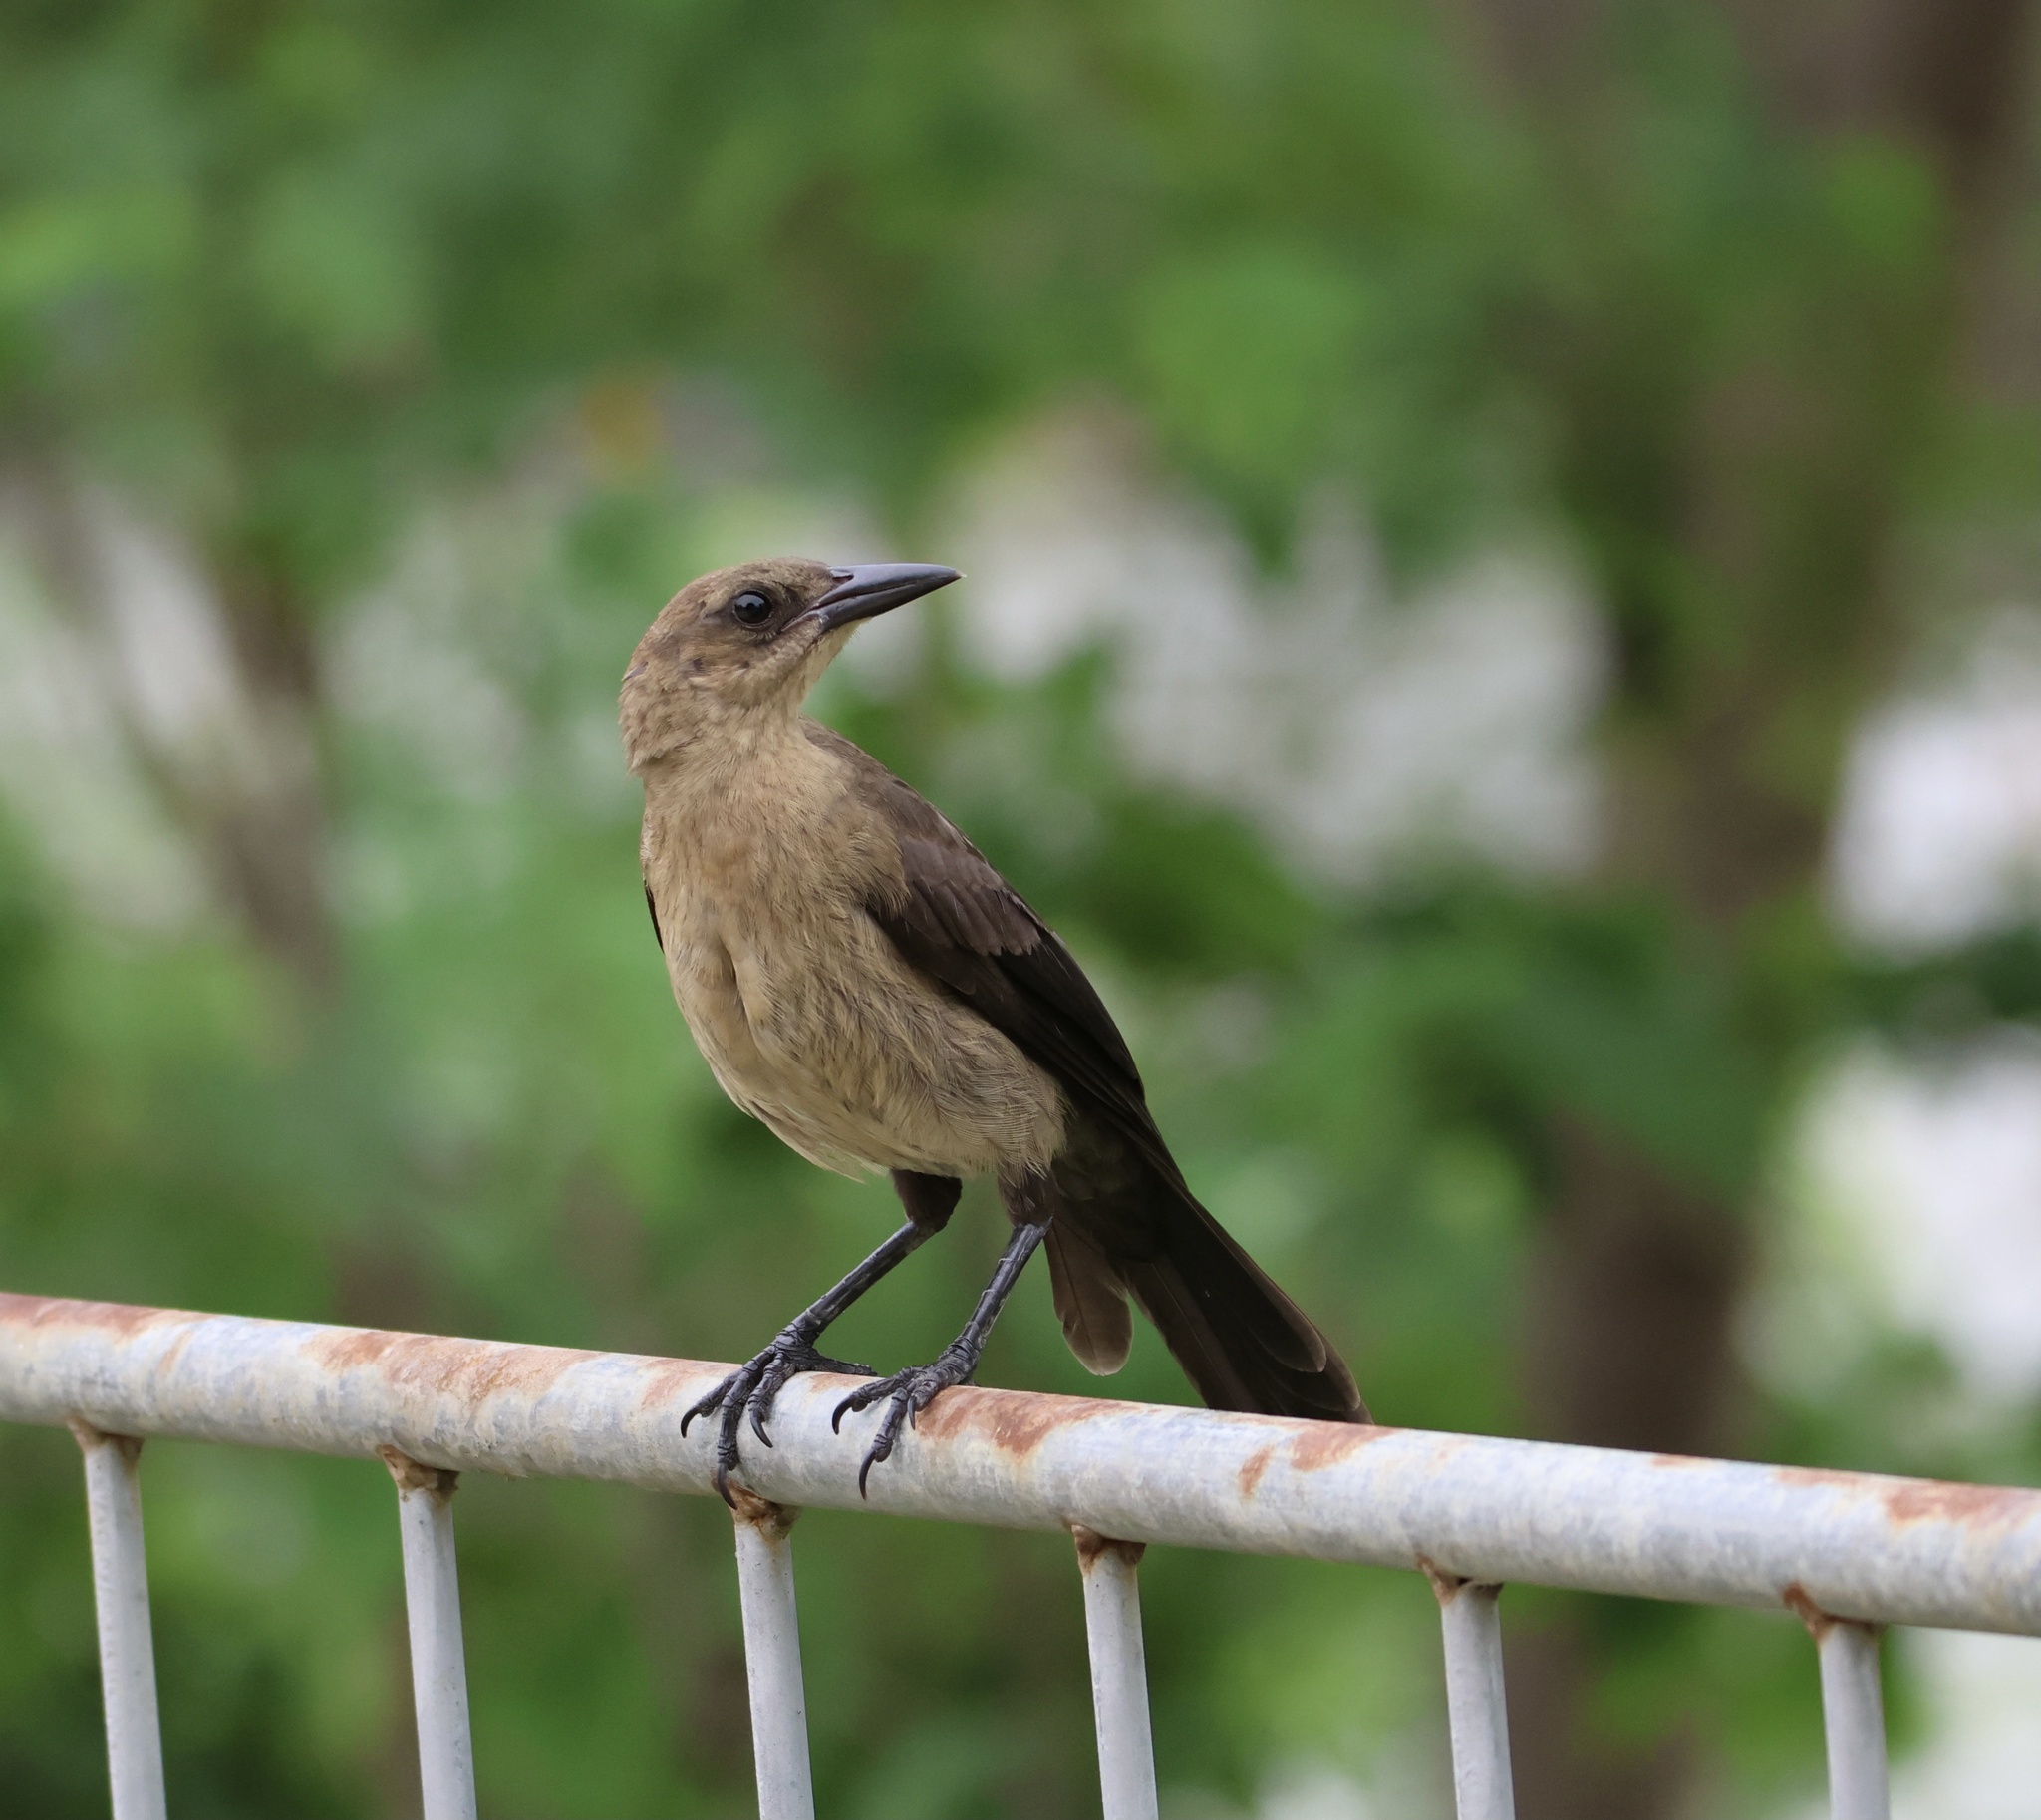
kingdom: Animalia
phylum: Chordata
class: Aves
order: Passeriformes
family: Icteridae
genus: Quiscalus
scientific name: Quiscalus mexicanus
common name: Great-tailed grackle
